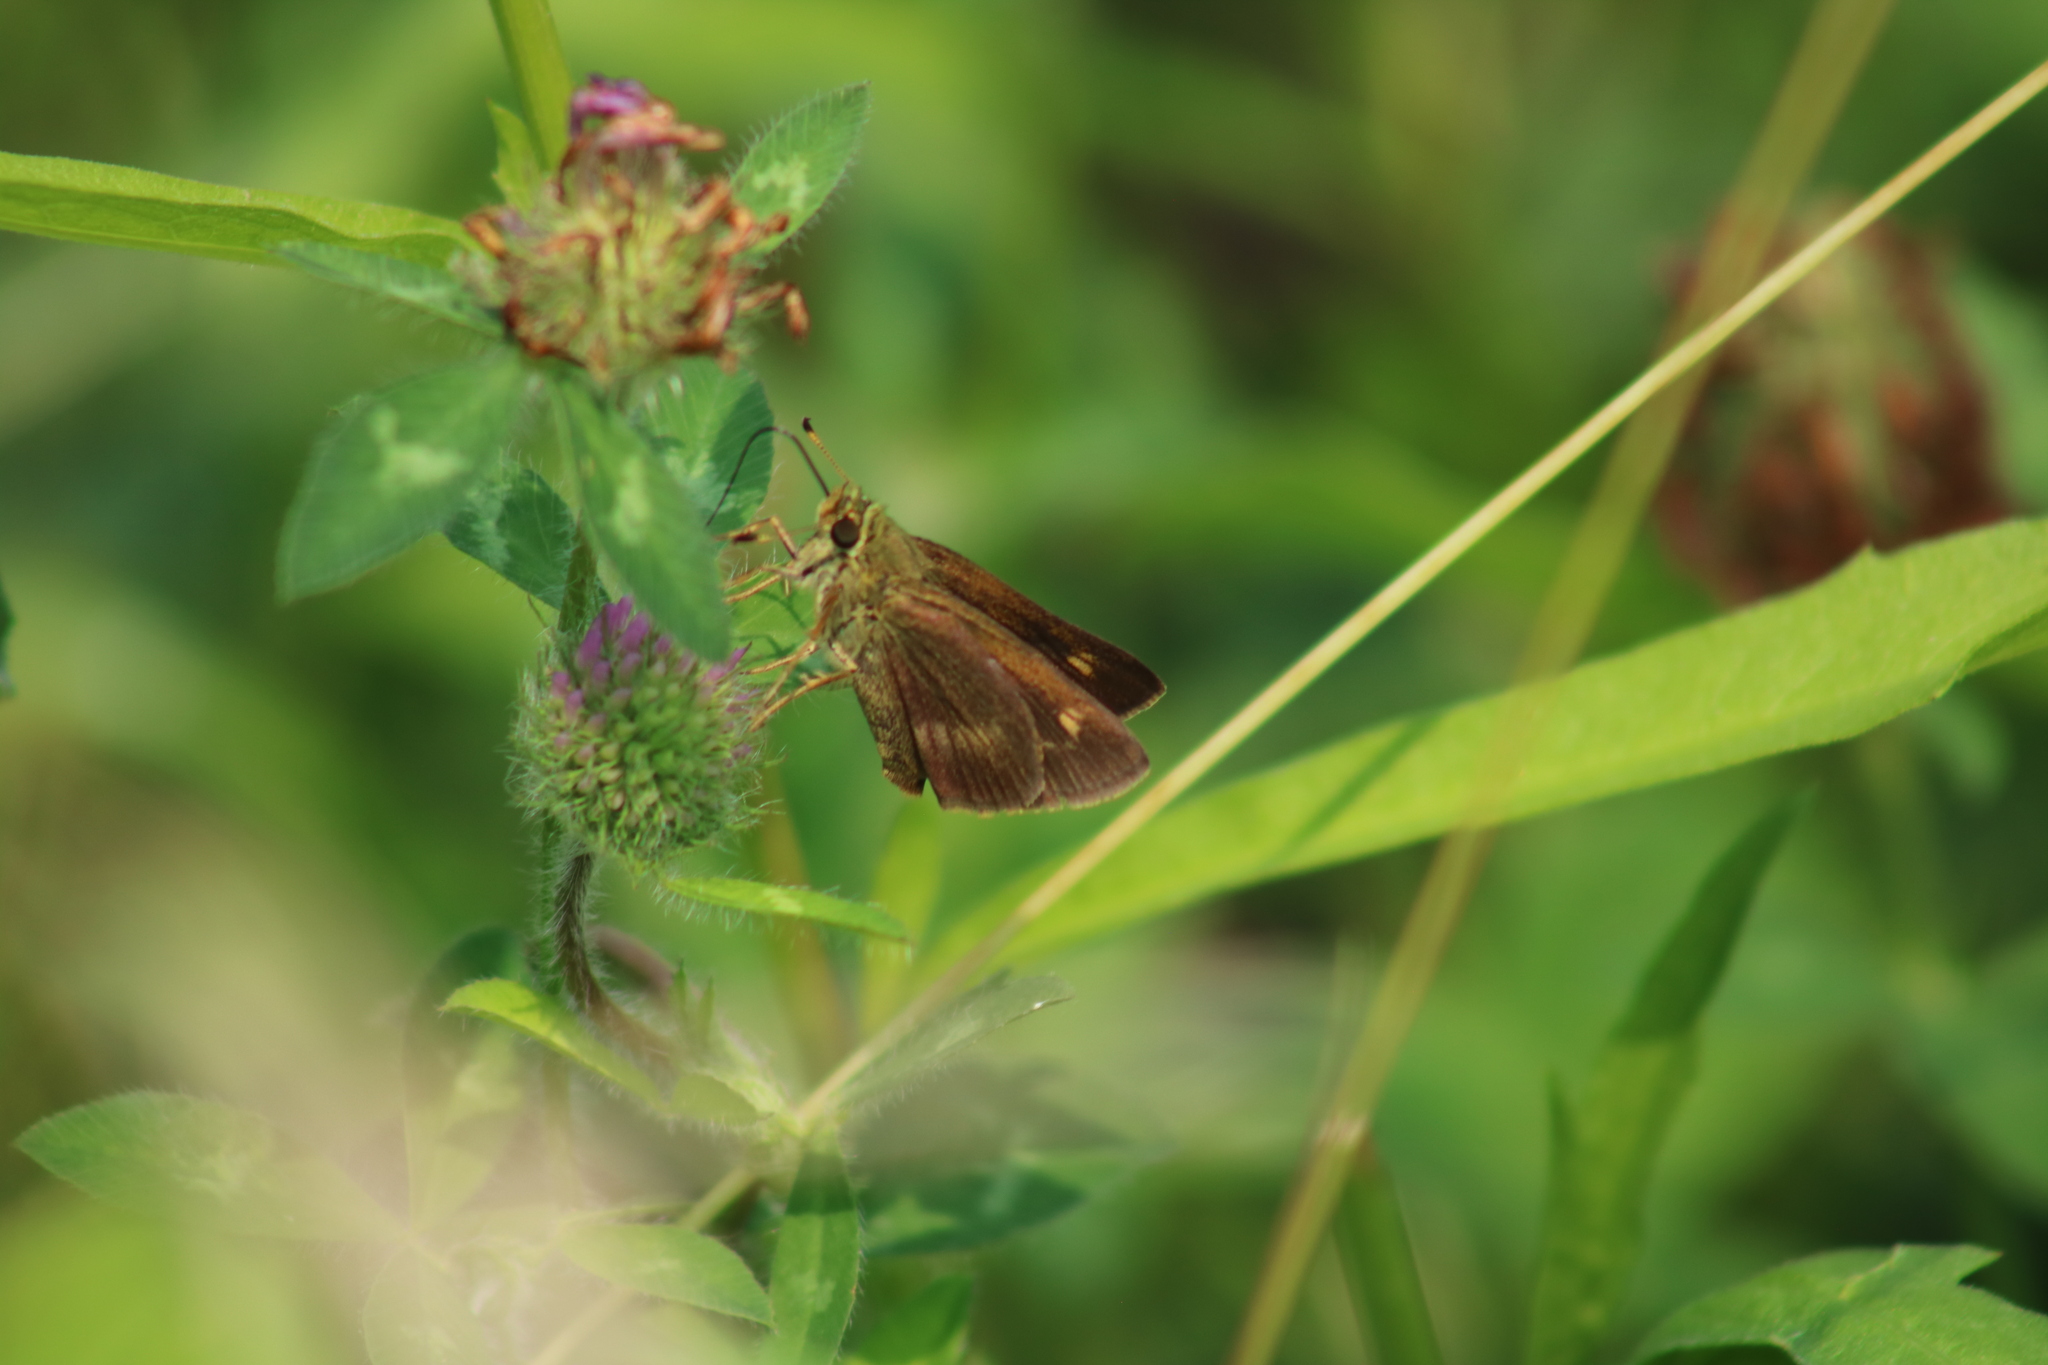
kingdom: Animalia
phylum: Arthropoda
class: Insecta
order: Lepidoptera
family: Hesperiidae
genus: Polites
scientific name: Polites egeremet
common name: Northern broken-dash
